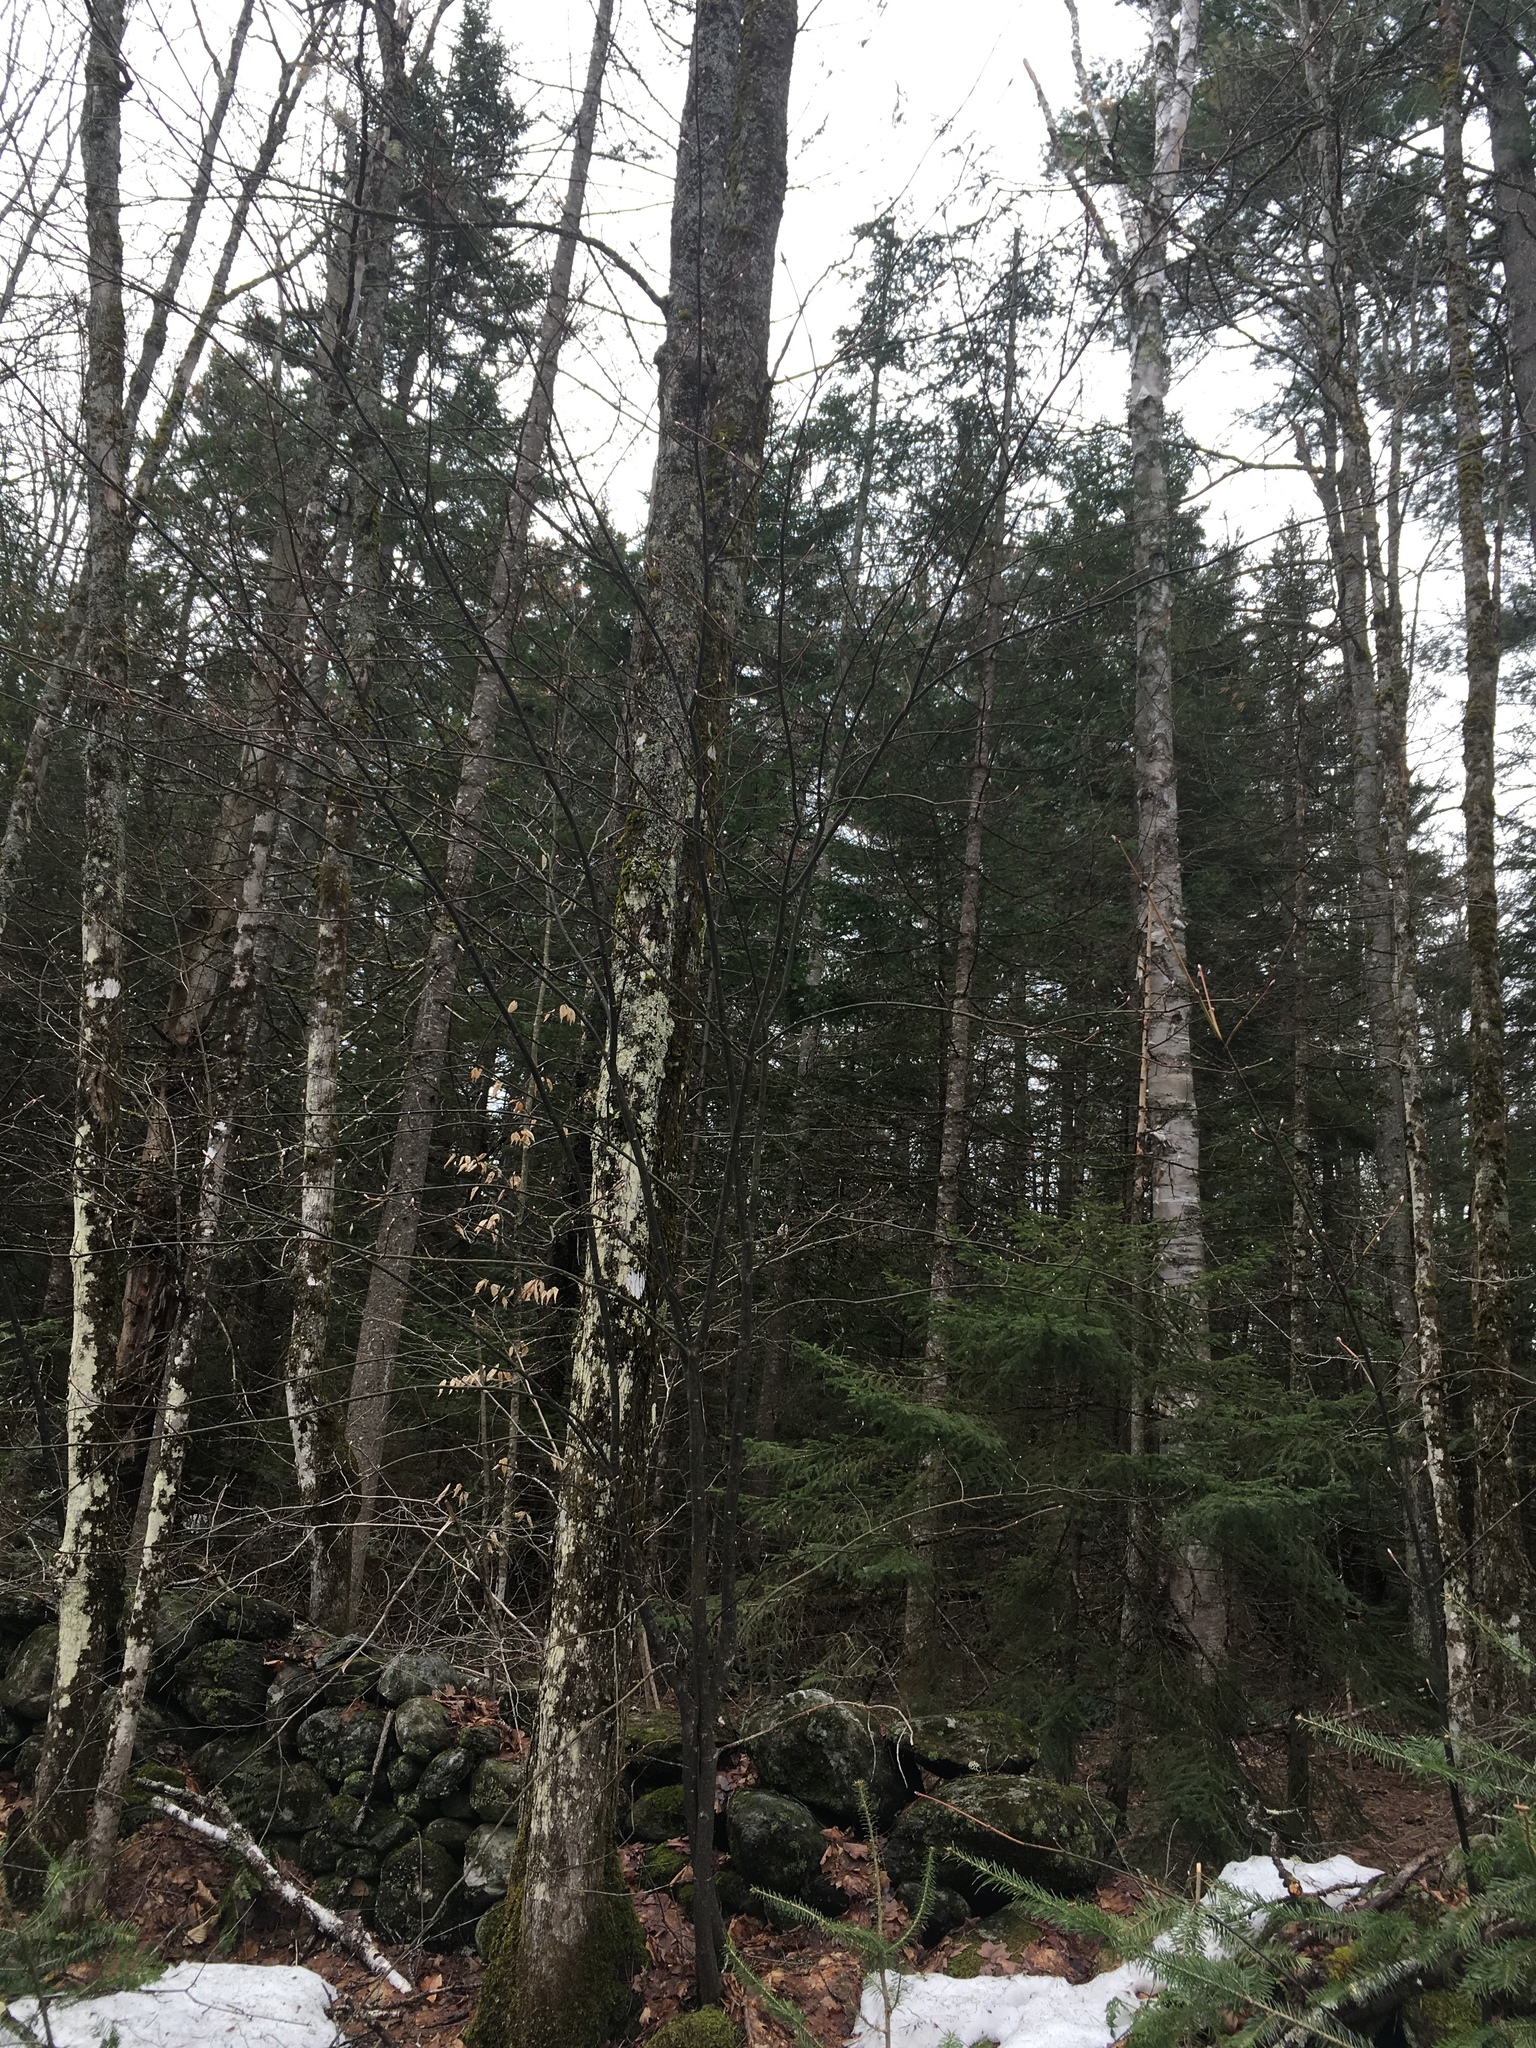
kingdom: Plantae
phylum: Tracheophyta
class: Magnoliopsida
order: Sapindales
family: Sapindaceae
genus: Acer
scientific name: Acer pensylvanicum
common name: Moosewood
